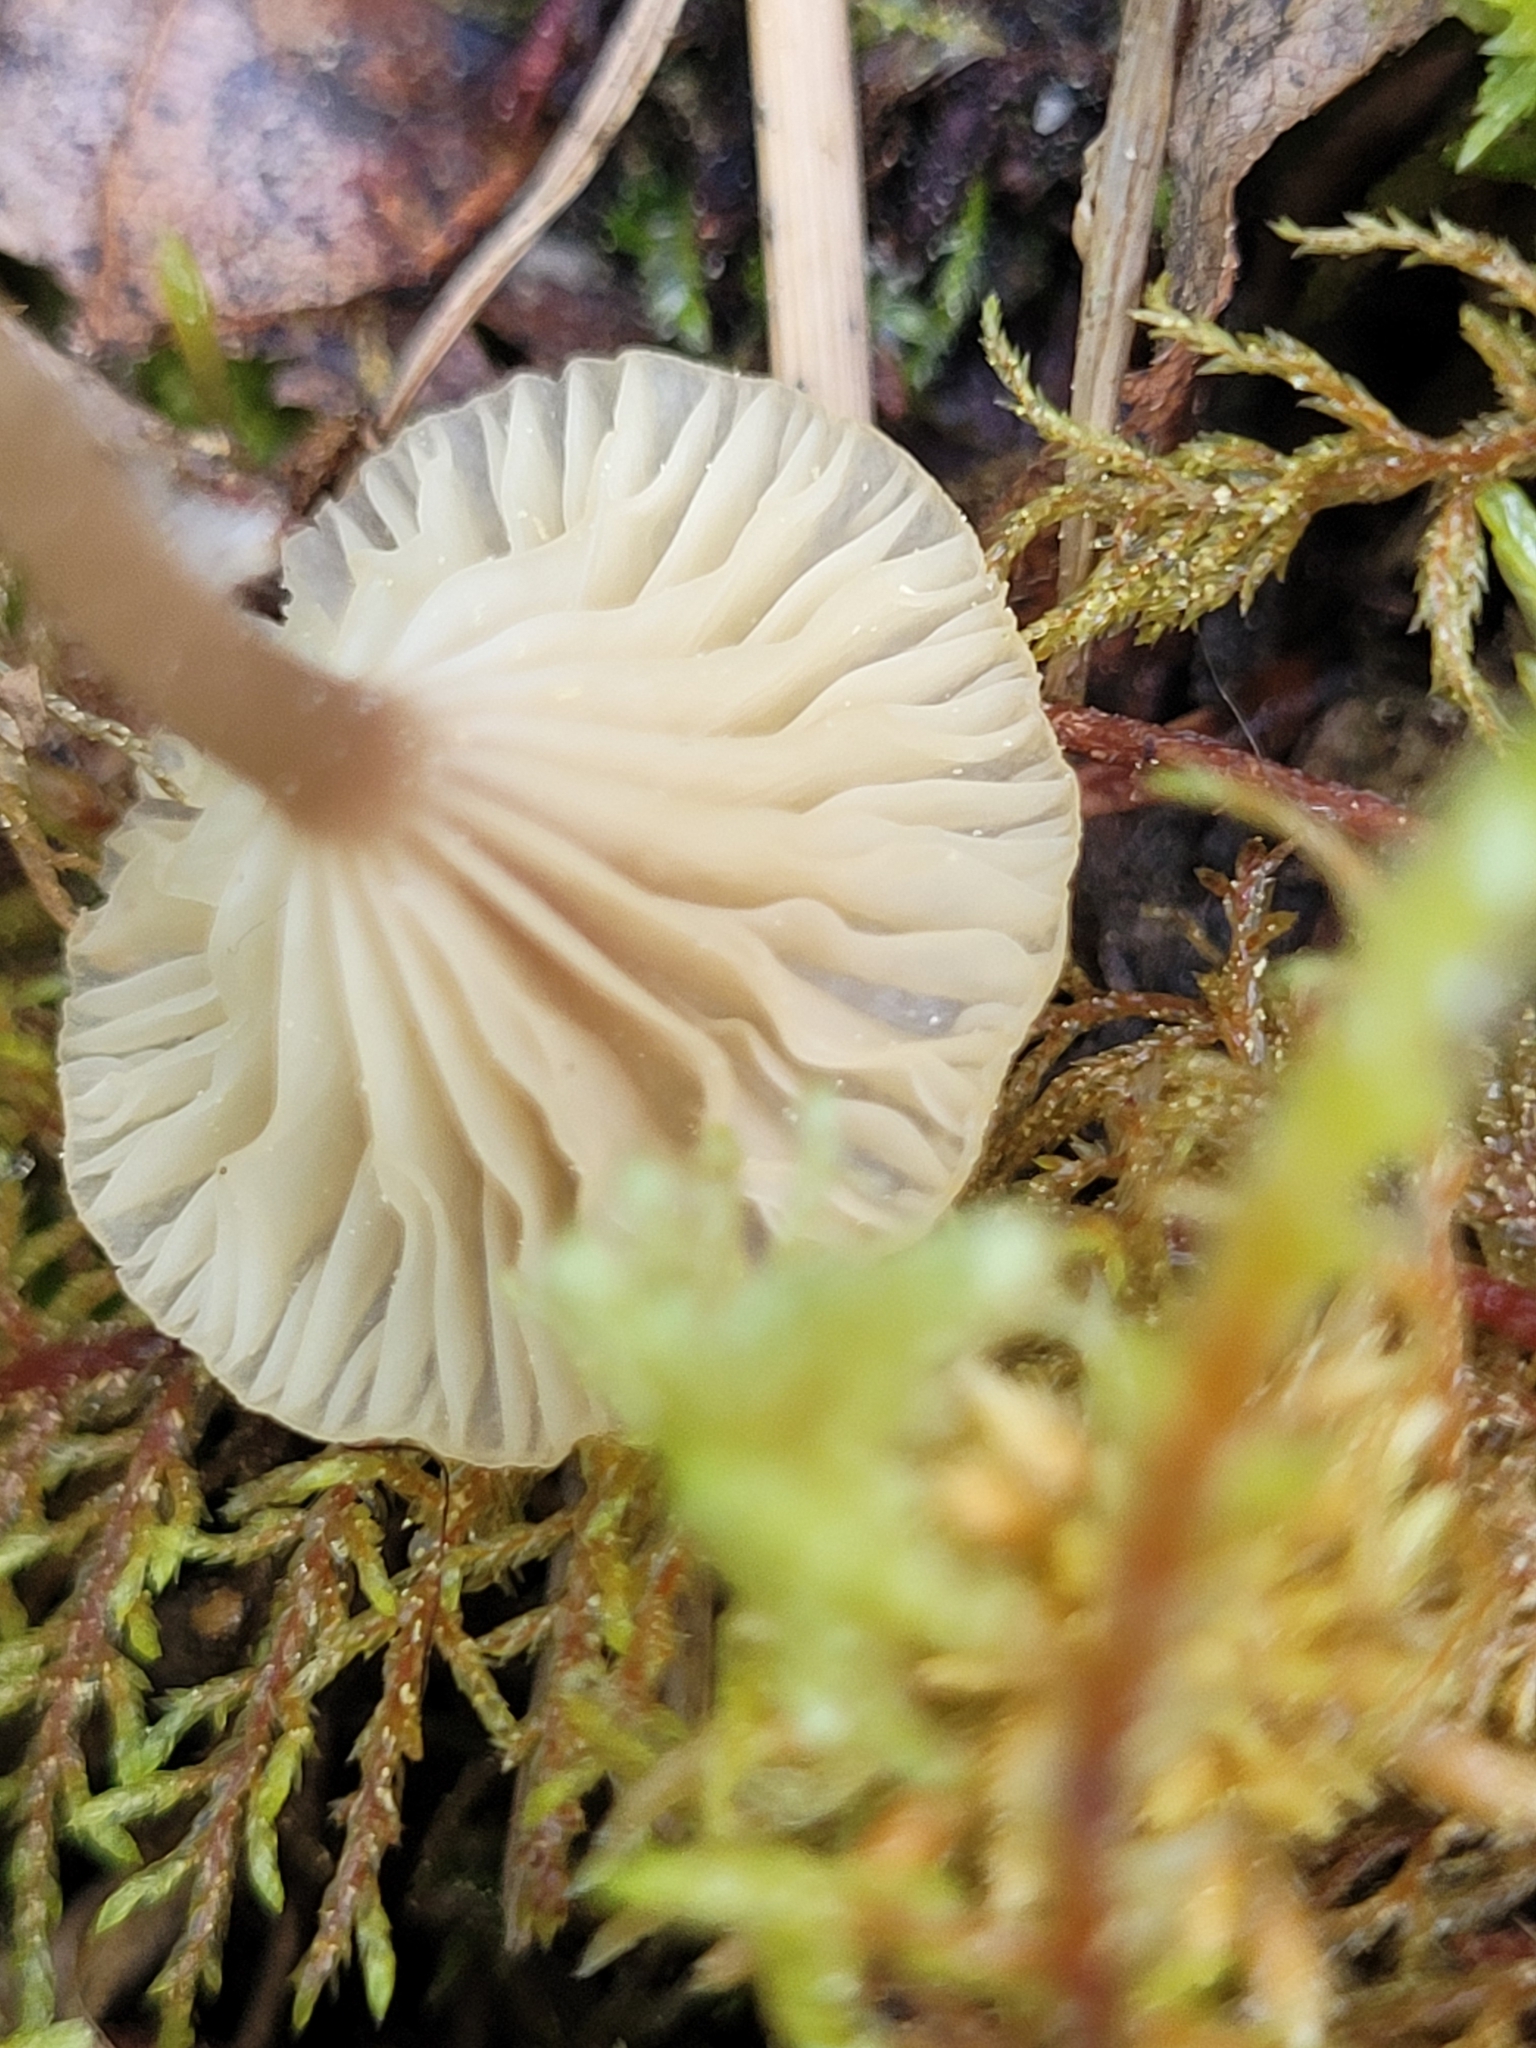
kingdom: Fungi
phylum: Basidiomycota
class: Agaricomycetes
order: Agaricales
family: Hygrophoraceae
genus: Lichenomphalia
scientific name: Lichenomphalia
